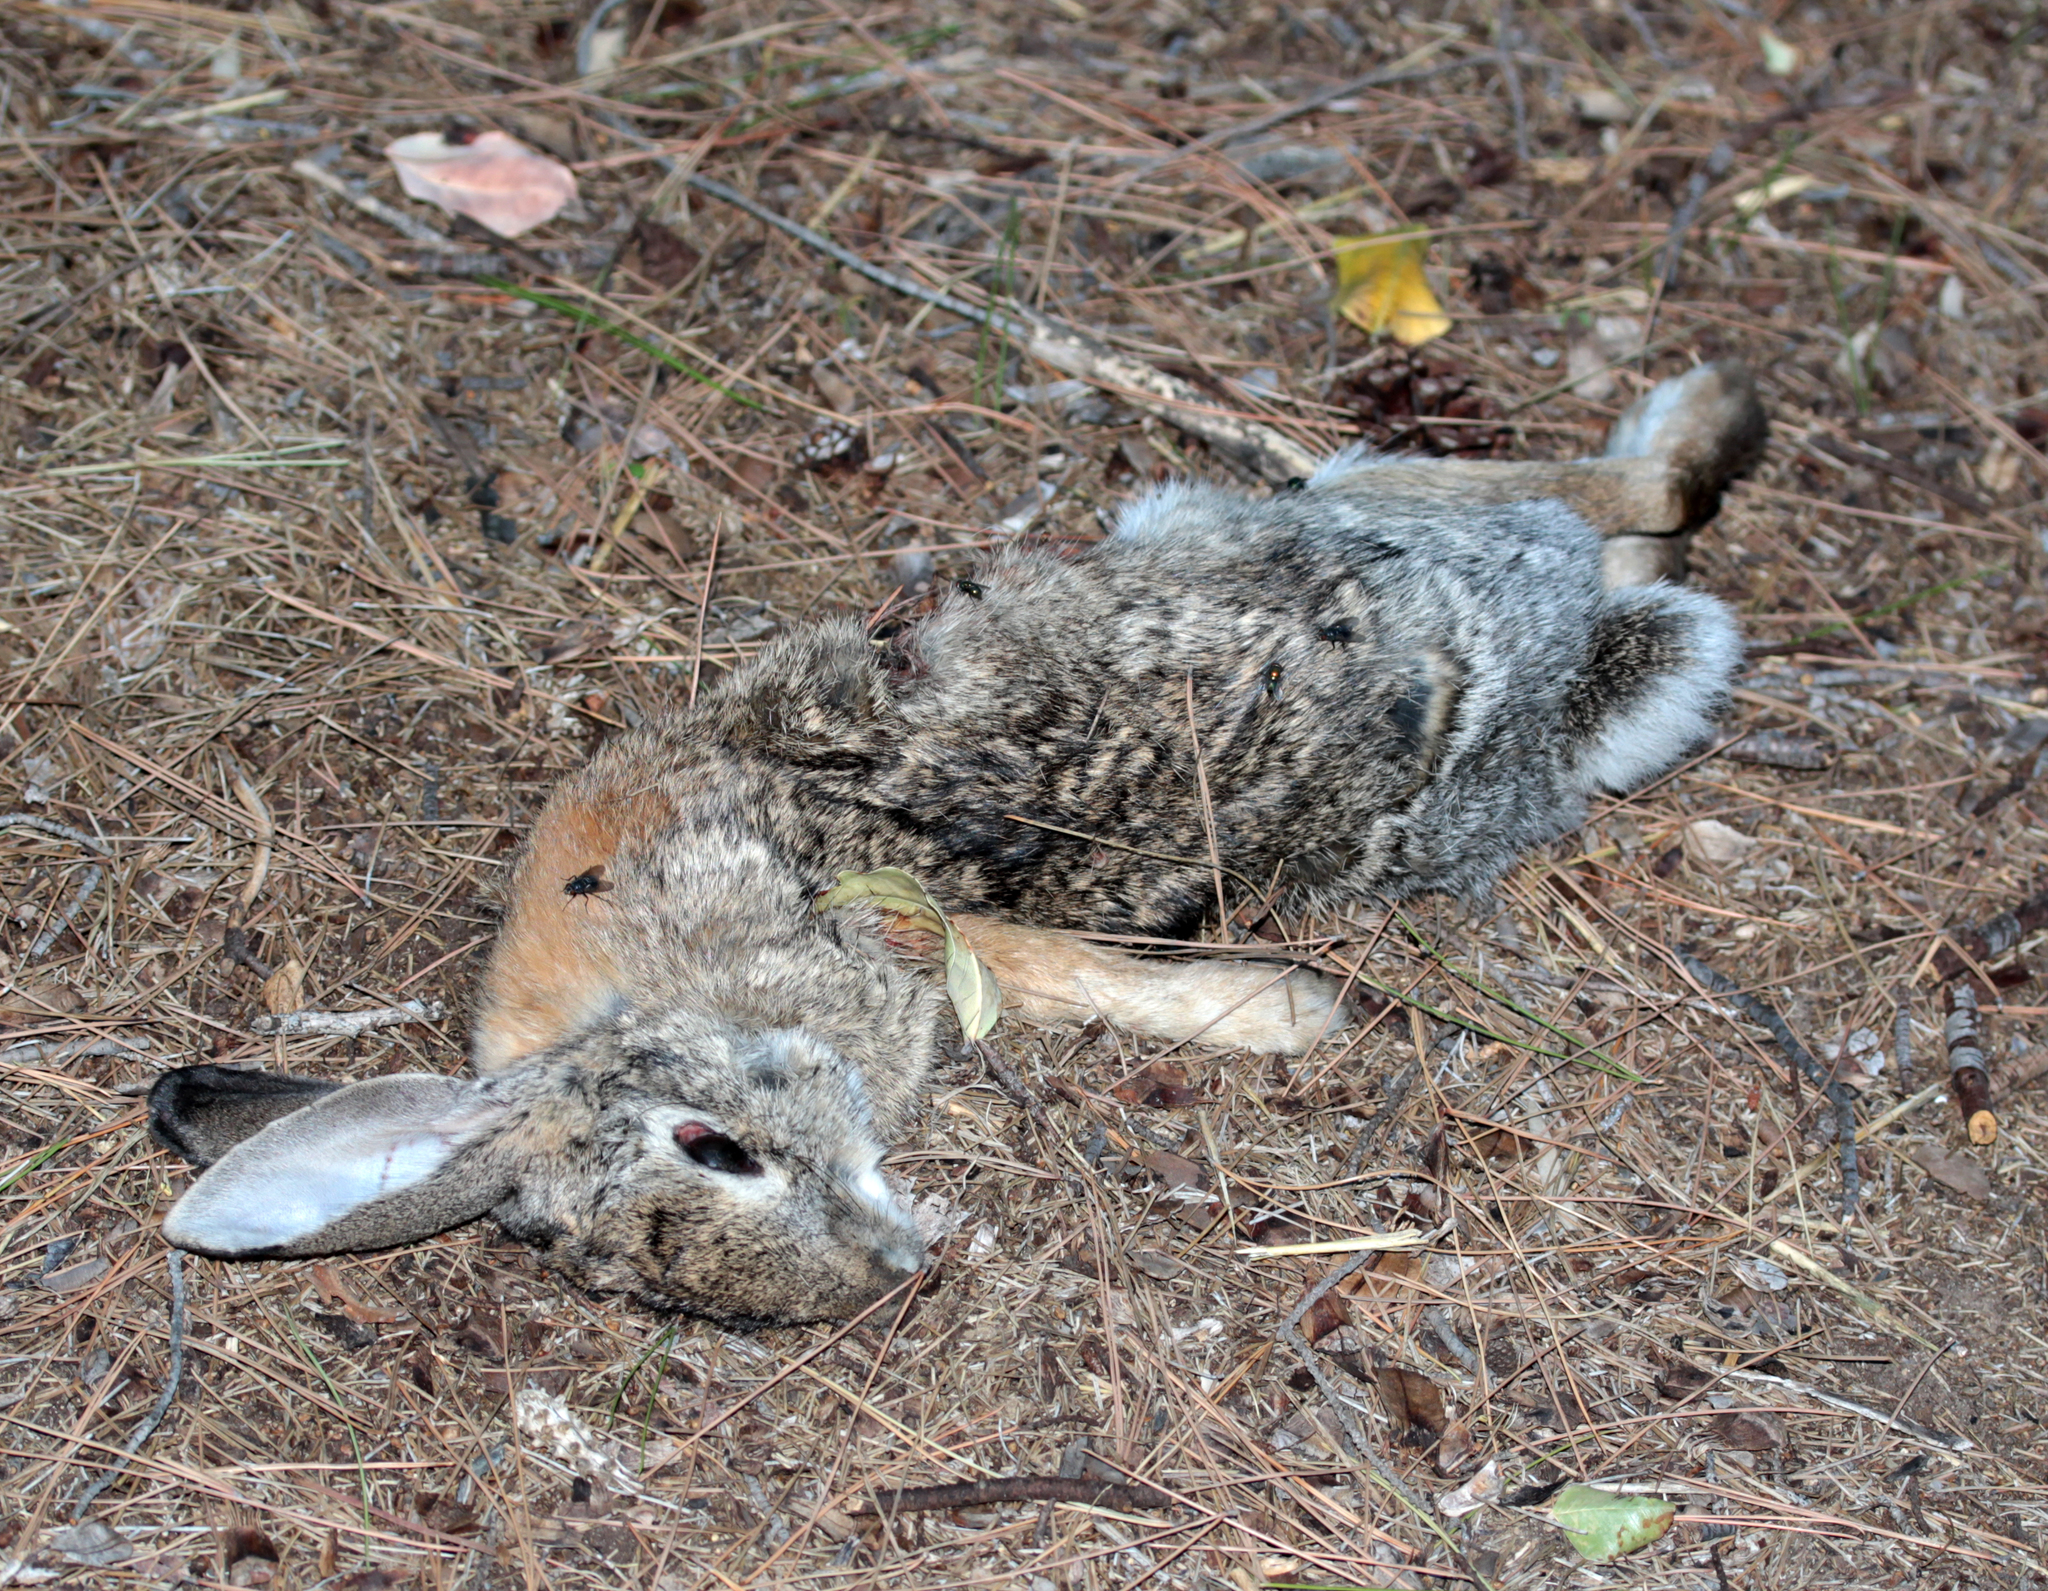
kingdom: Animalia
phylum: Chordata
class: Mammalia
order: Lagomorpha
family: Leporidae
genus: Sylvilagus
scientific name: Sylvilagus audubonii
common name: Desert cottontail
